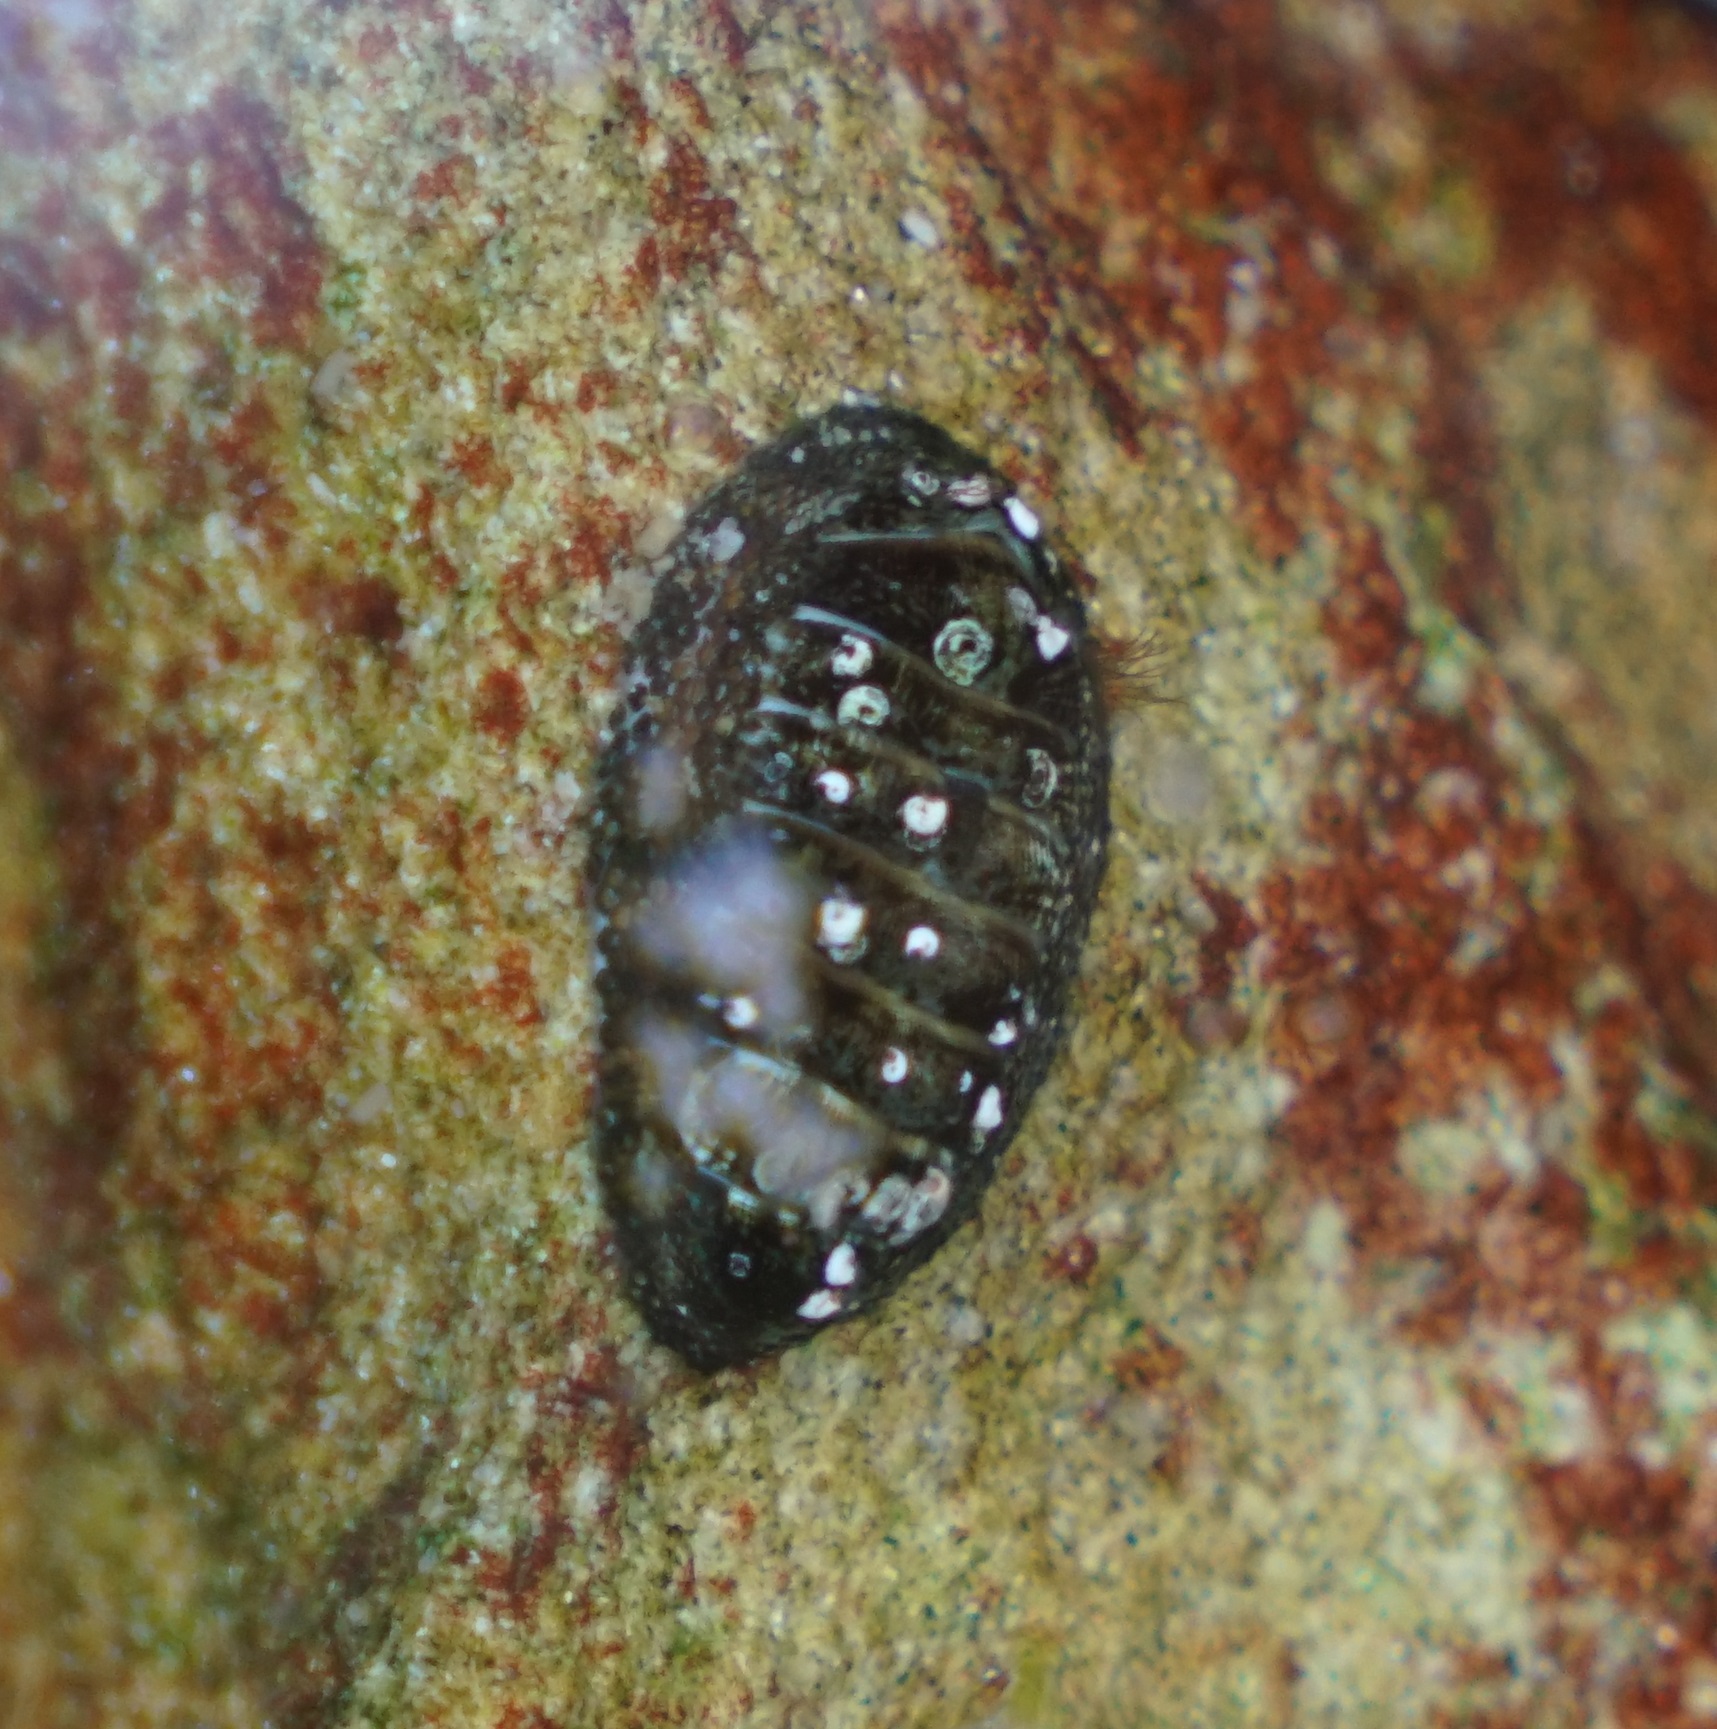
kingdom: Animalia
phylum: Mollusca
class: Polyplacophora
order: Chitonida
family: Chitonidae
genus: Sypharochiton
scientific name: Sypharochiton pelliserpentis
